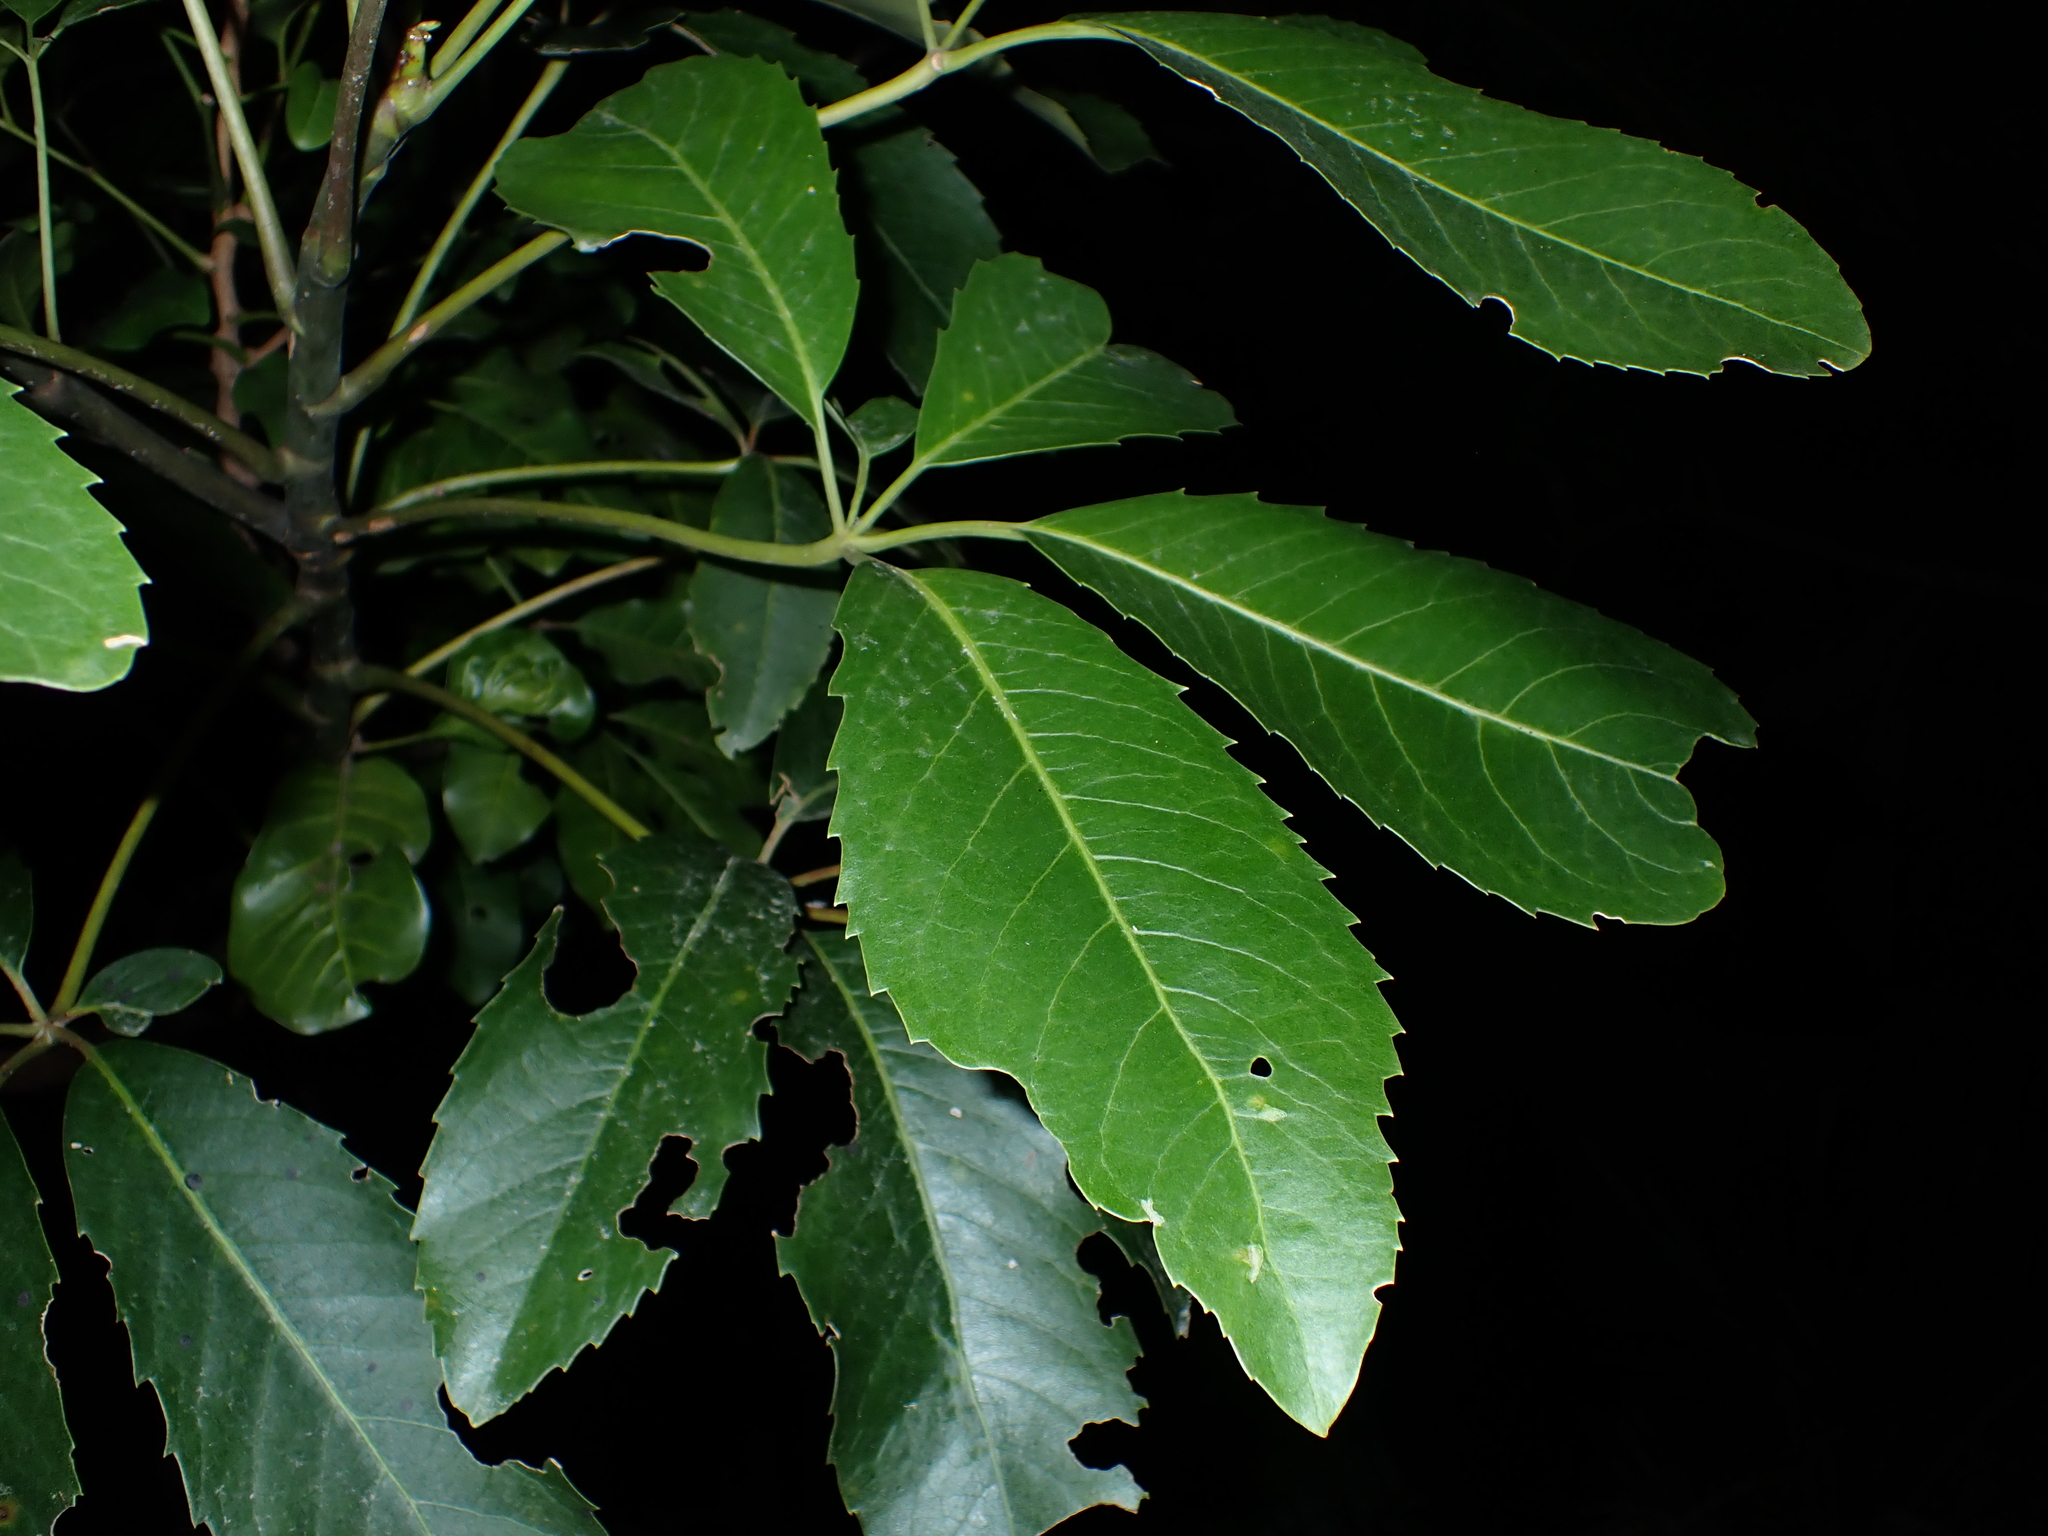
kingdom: Plantae
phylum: Tracheophyta
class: Magnoliopsida
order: Apiales
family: Araliaceae
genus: Neopanax
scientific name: Neopanax arboreus
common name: Five-fingers
